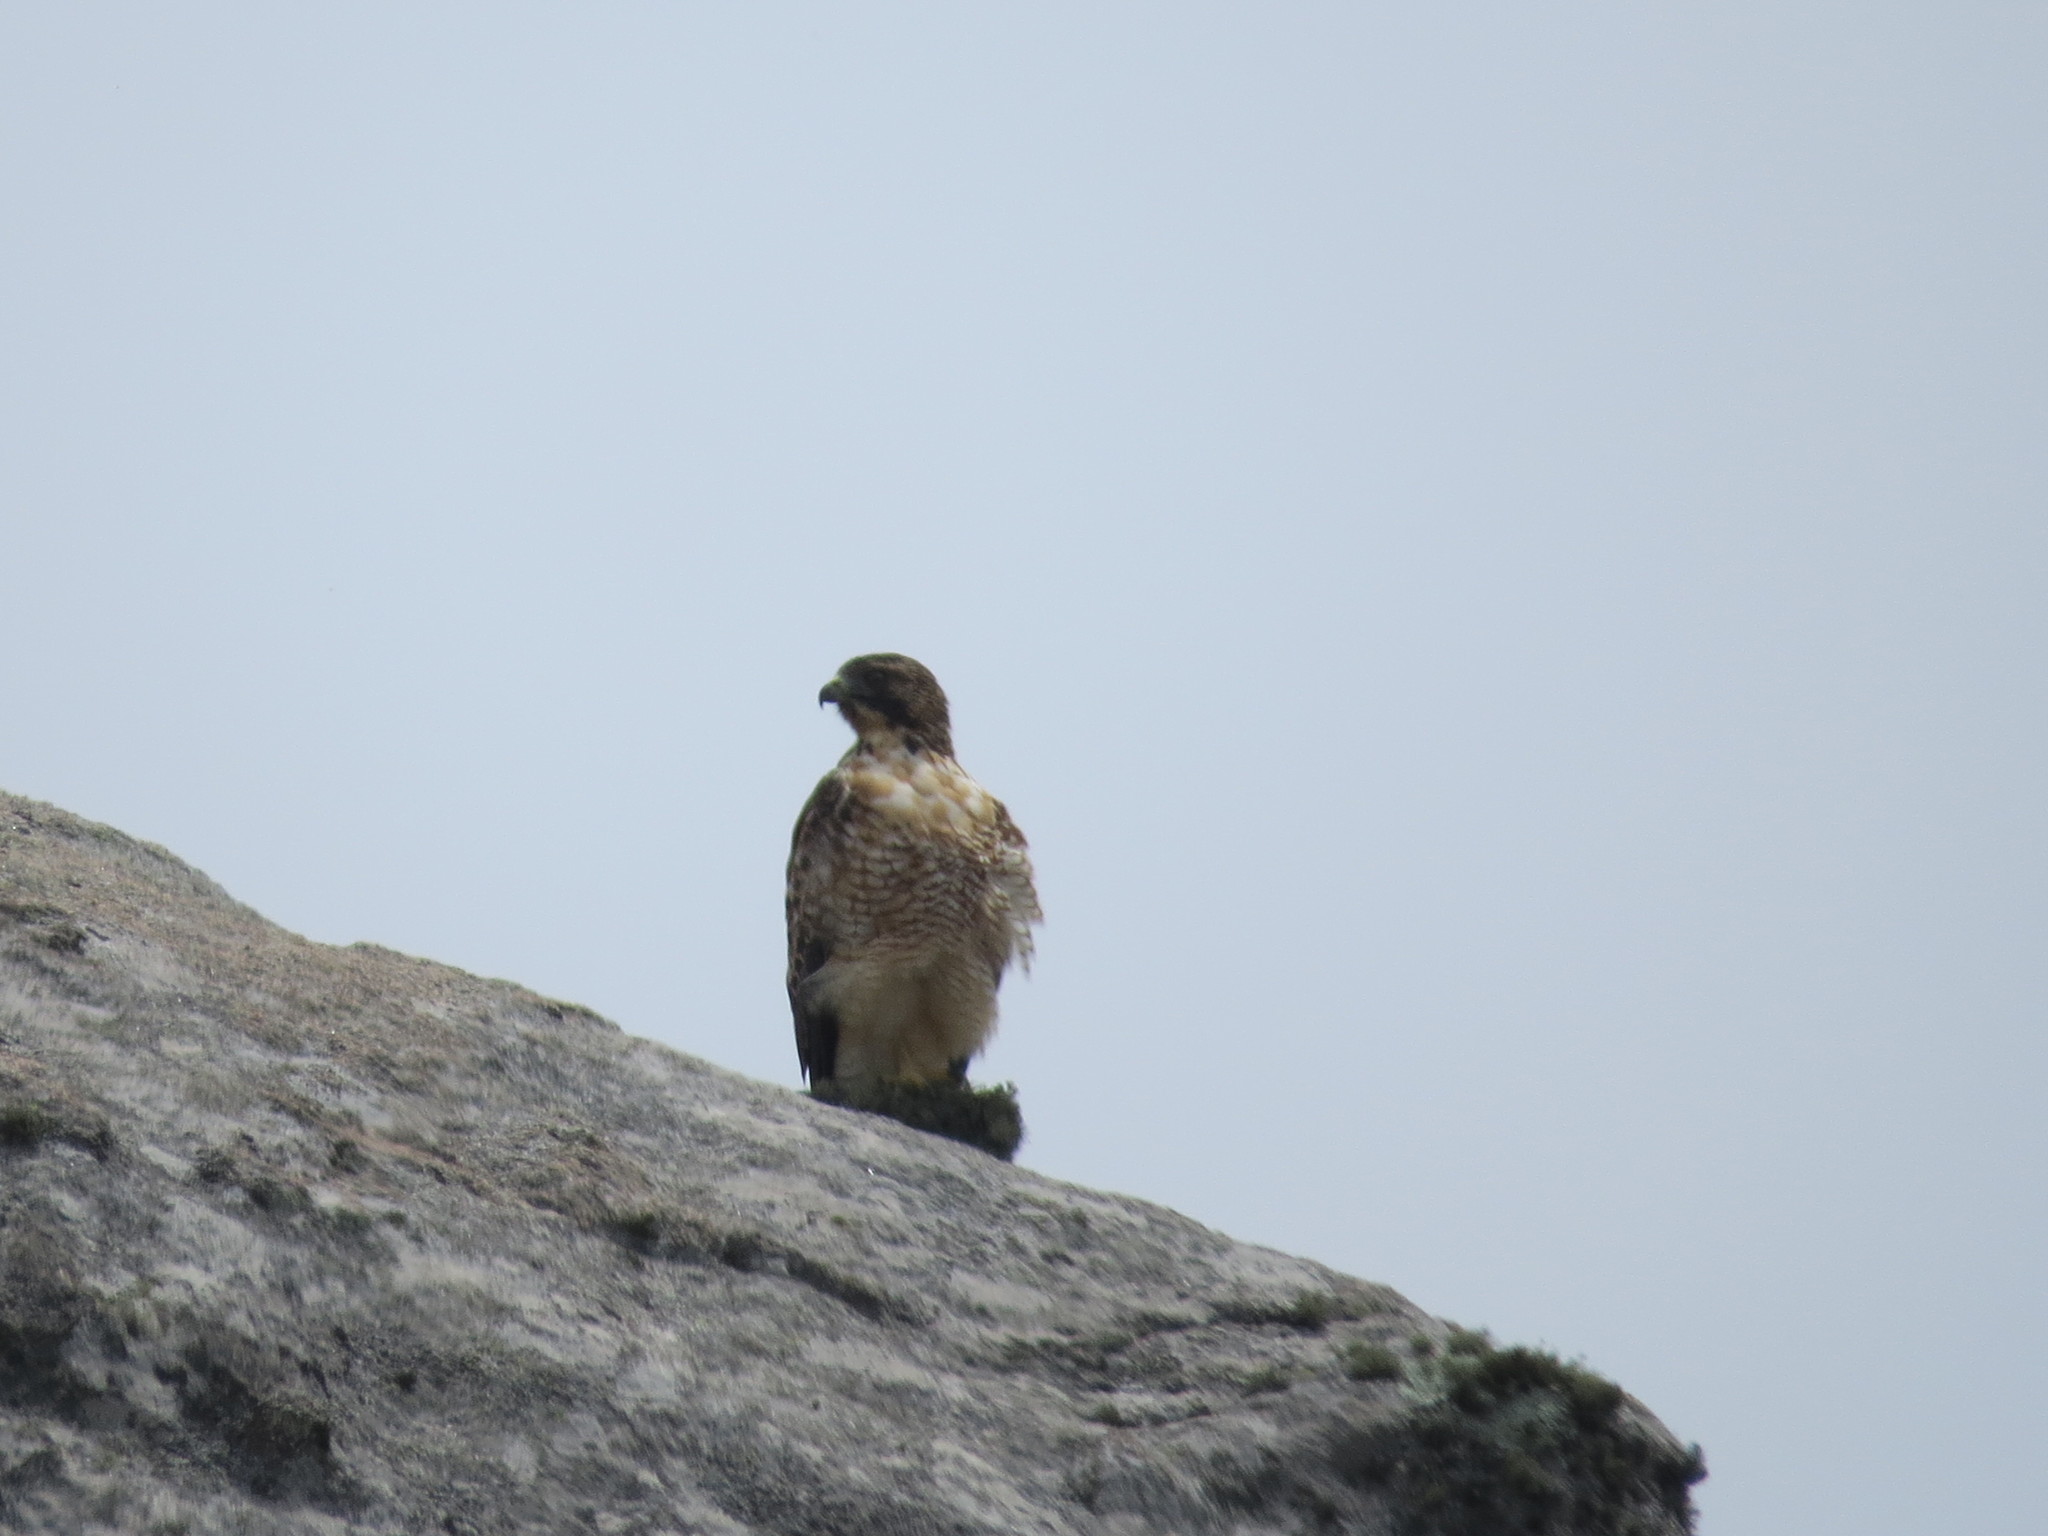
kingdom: Animalia
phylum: Chordata
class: Aves
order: Accipitriformes
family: Accipitridae
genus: Buteo
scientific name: Buteo polyosoma
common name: Variable hawk
